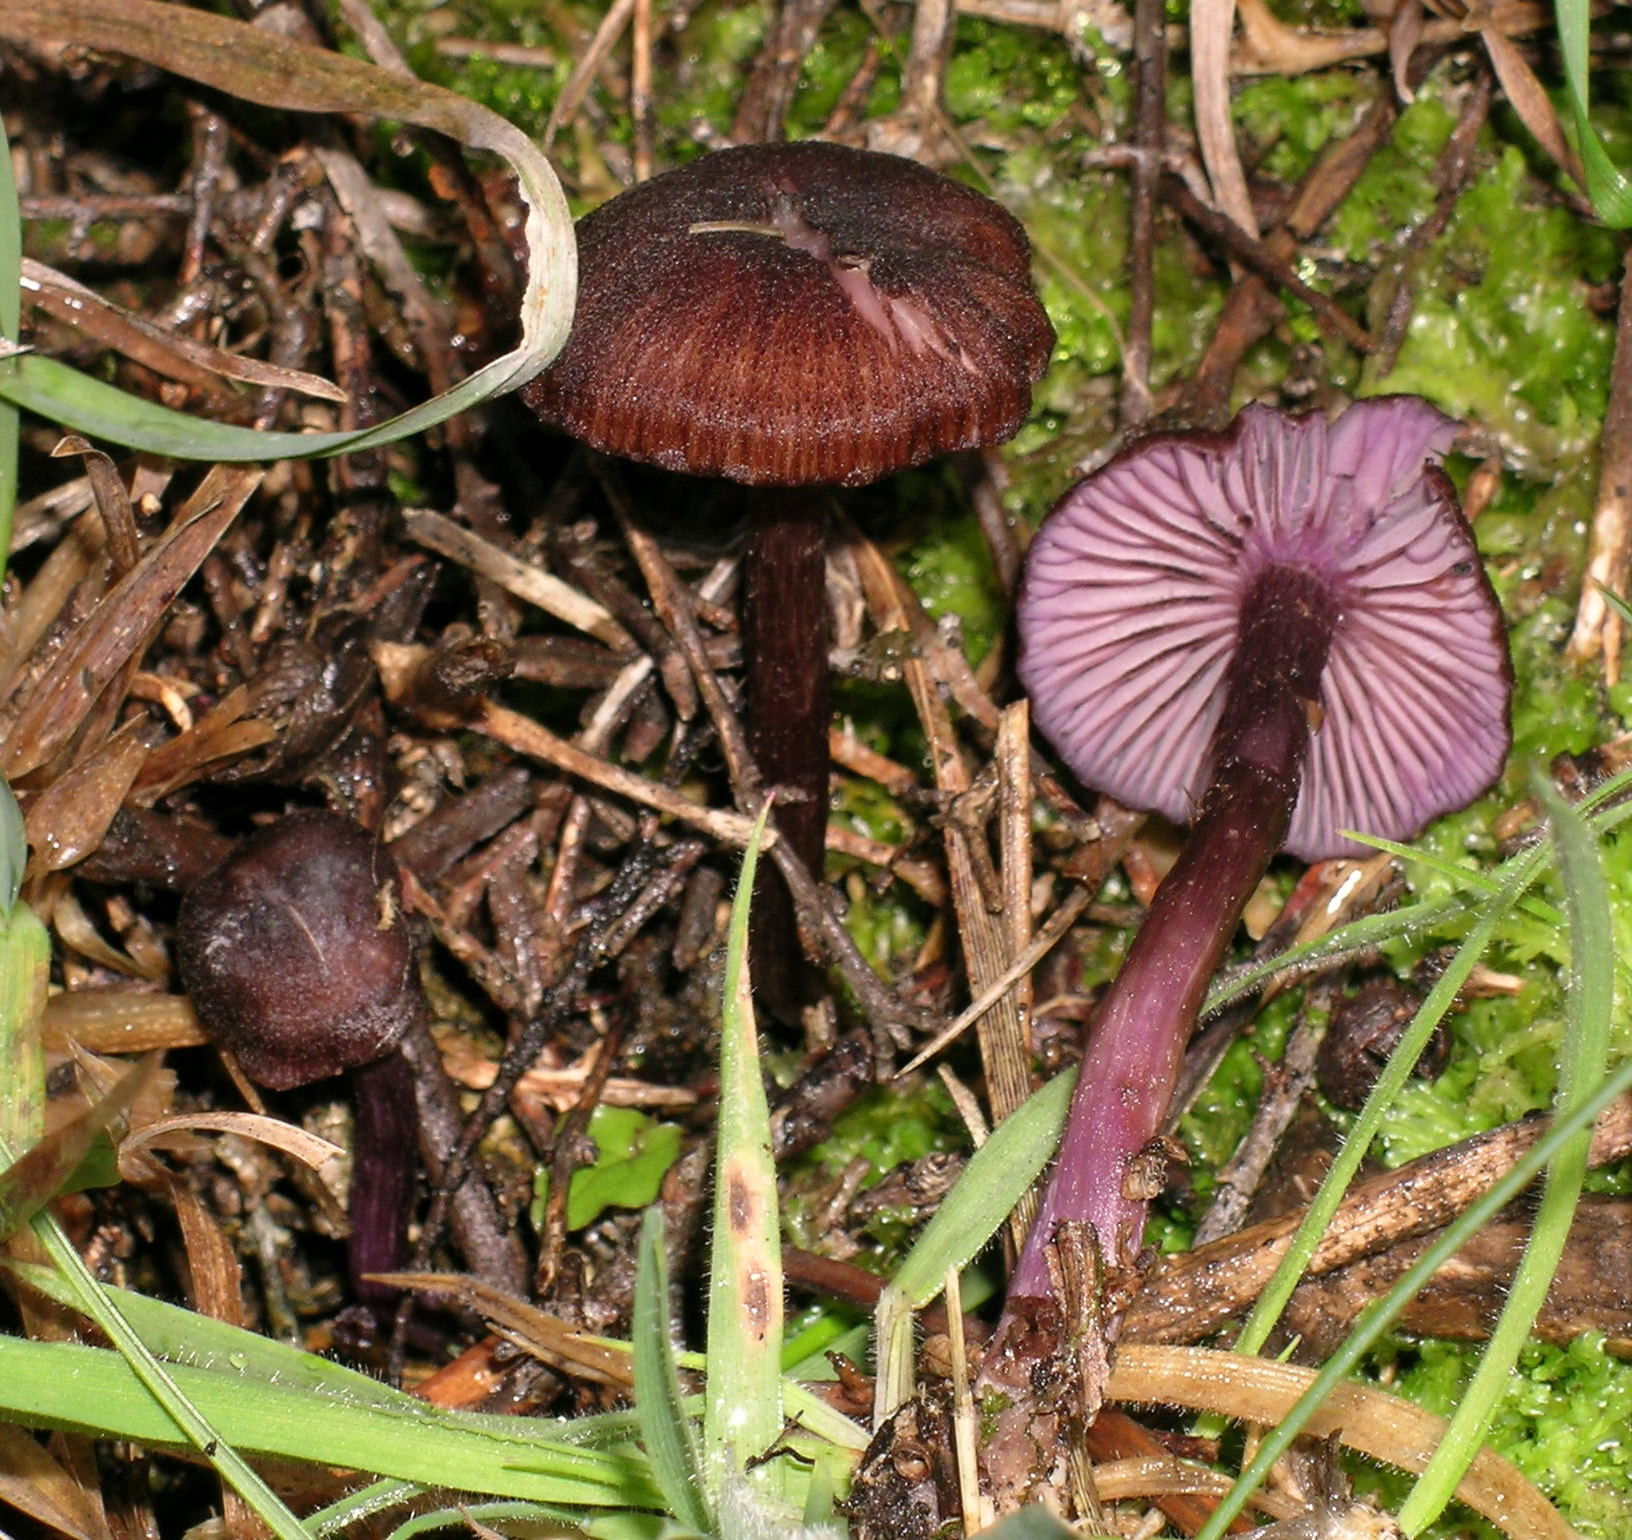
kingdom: Fungi
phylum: Basidiomycota
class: Agaricomycetes
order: Agaricales
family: Hydnangiaceae
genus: Laccaria
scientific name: Laccaria violaceonigra
